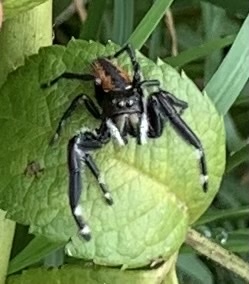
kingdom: Animalia
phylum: Arthropoda
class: Arachnida
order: Araneae
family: Salticidae
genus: Phidippus
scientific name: Phidippus clarus
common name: Brilliant jumping spider
